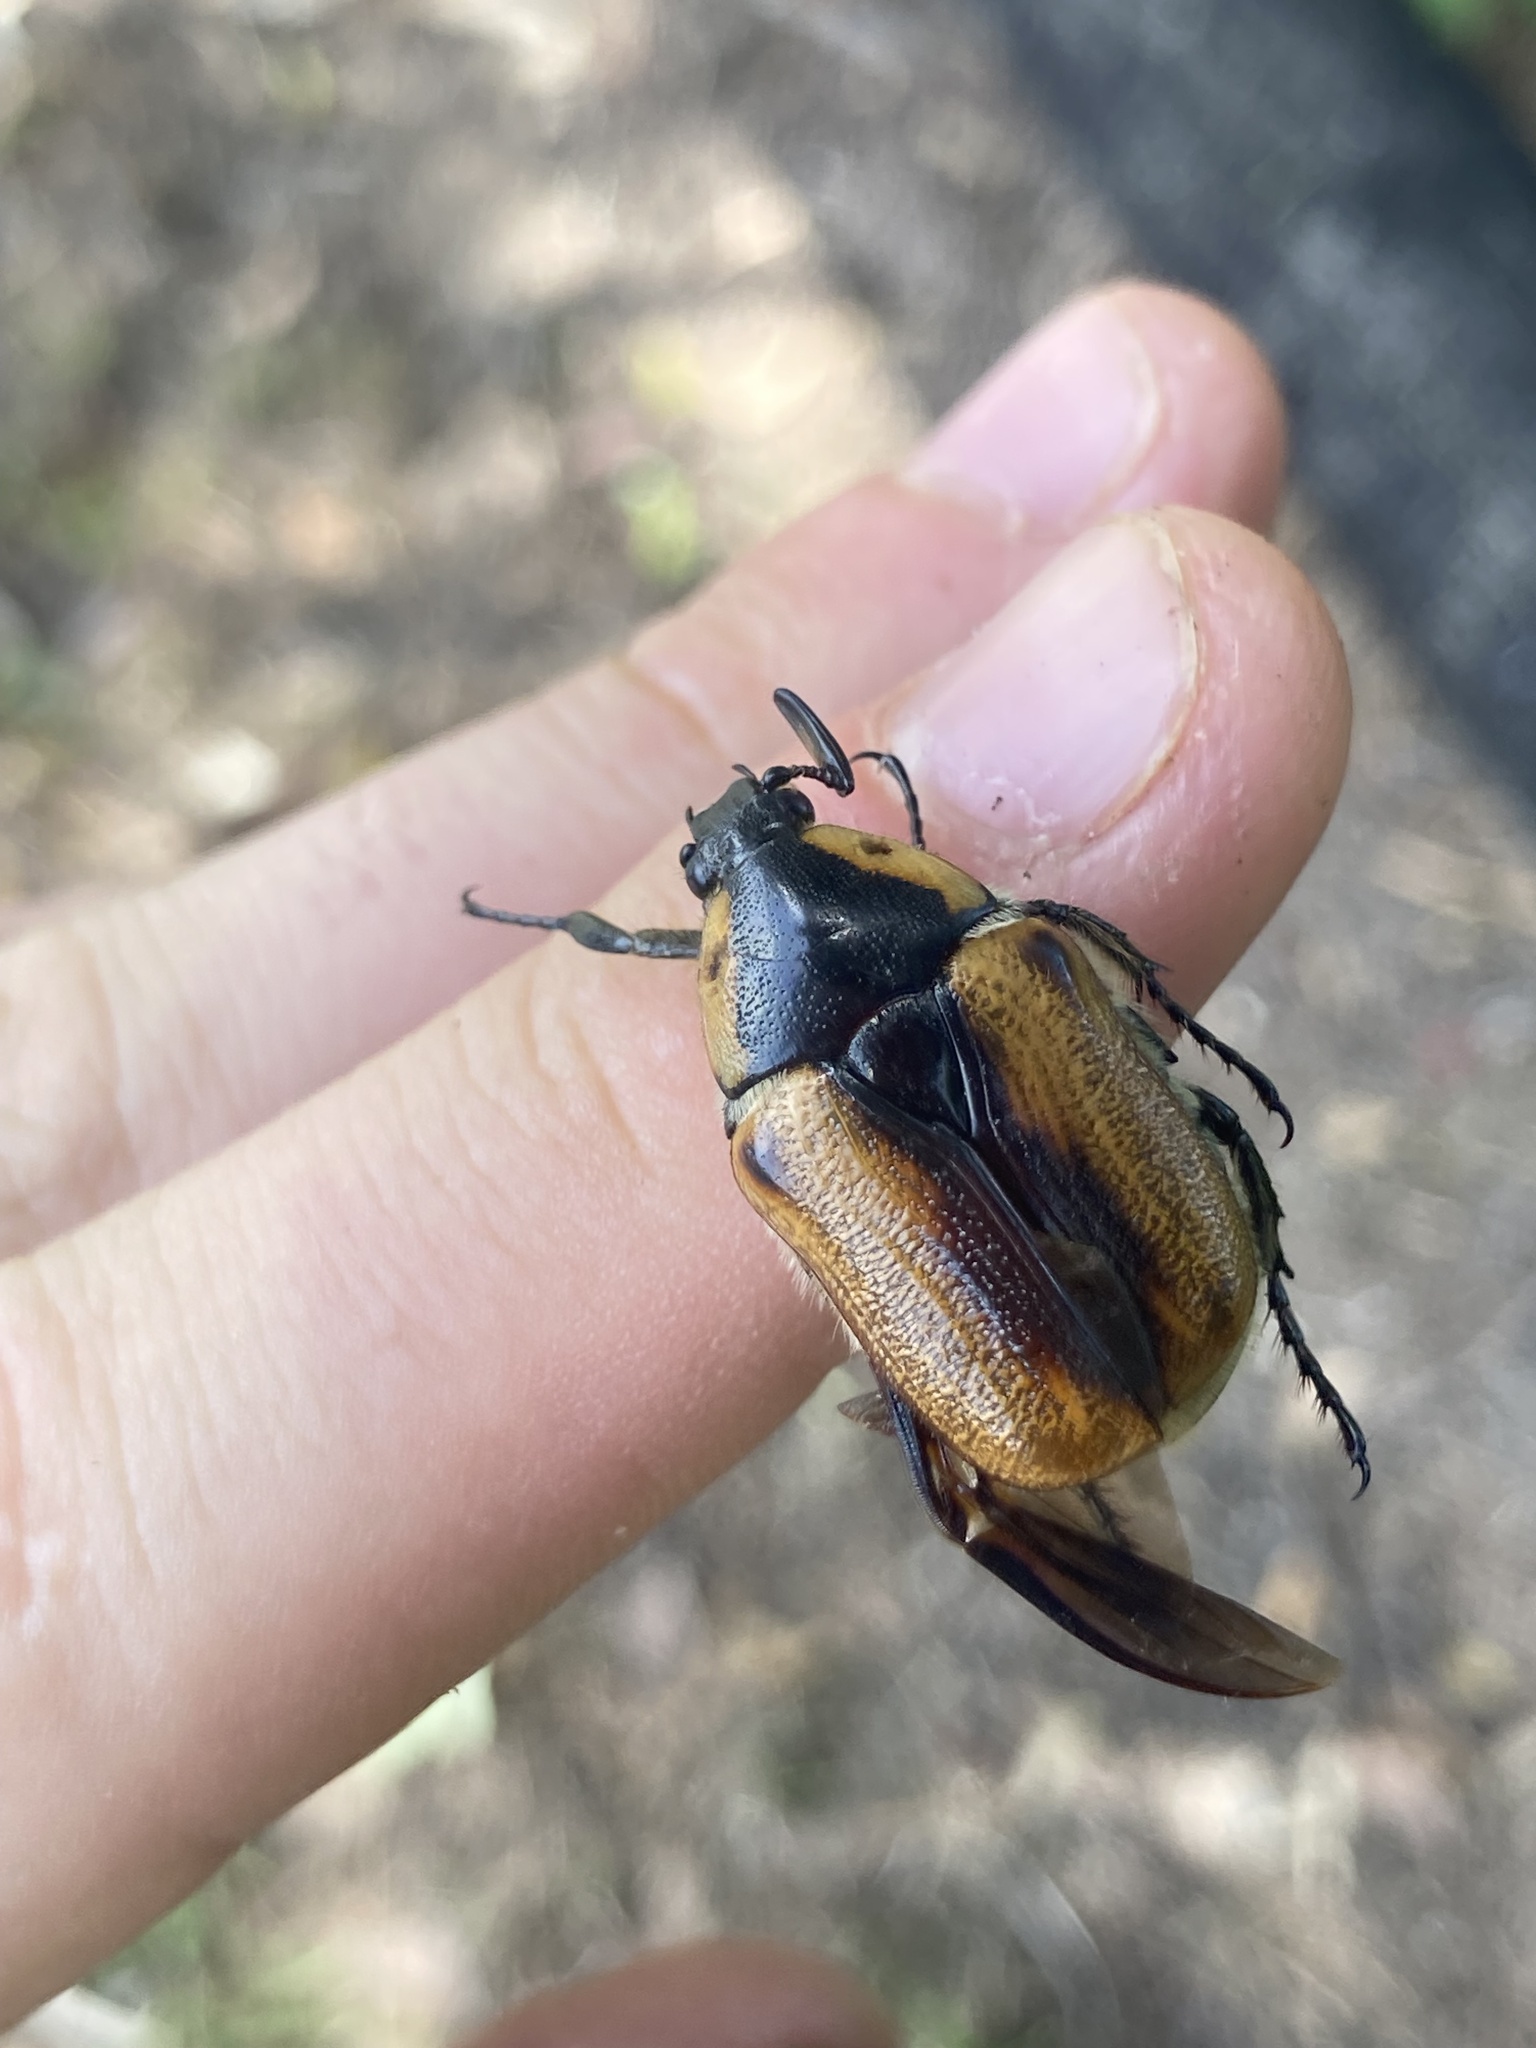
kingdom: Animalia
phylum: Arthropoda
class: Insecta
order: Coleoptera
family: Scarabaeidae
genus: Chondropyga
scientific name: Chondropyga dorsalis
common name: Cowboy beetle
